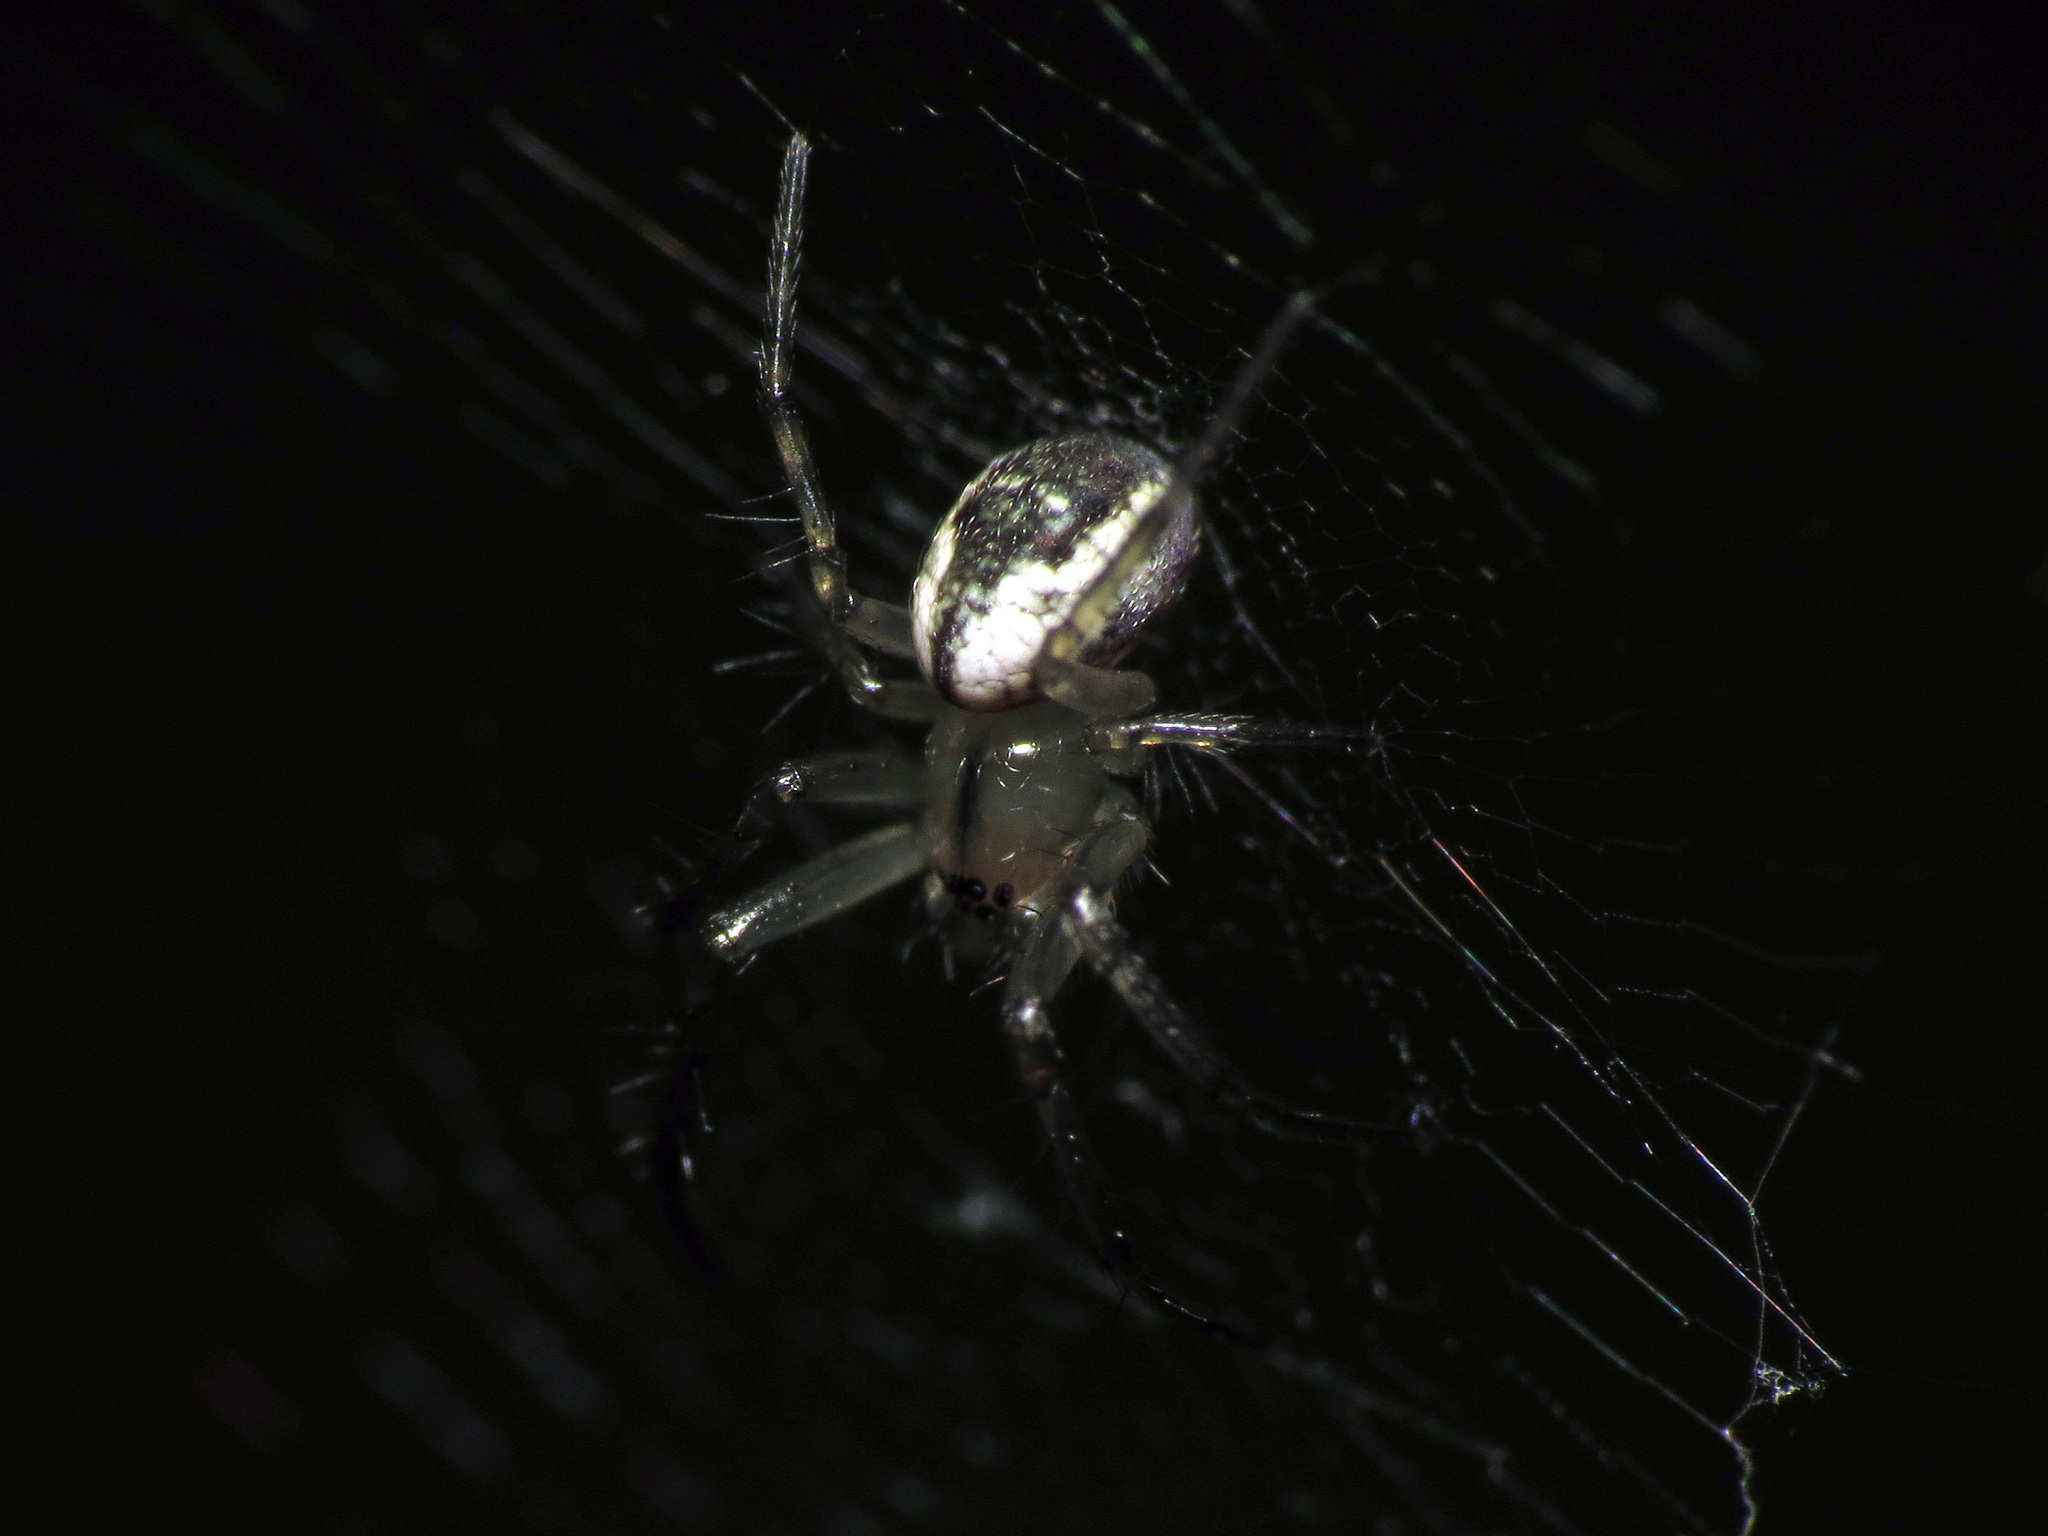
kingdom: Animalia
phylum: Arthropoda
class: Arachnida
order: Araneae
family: Araneidae
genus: Mangora
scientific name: Mangora placida
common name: Tuft-legged orbweaver
